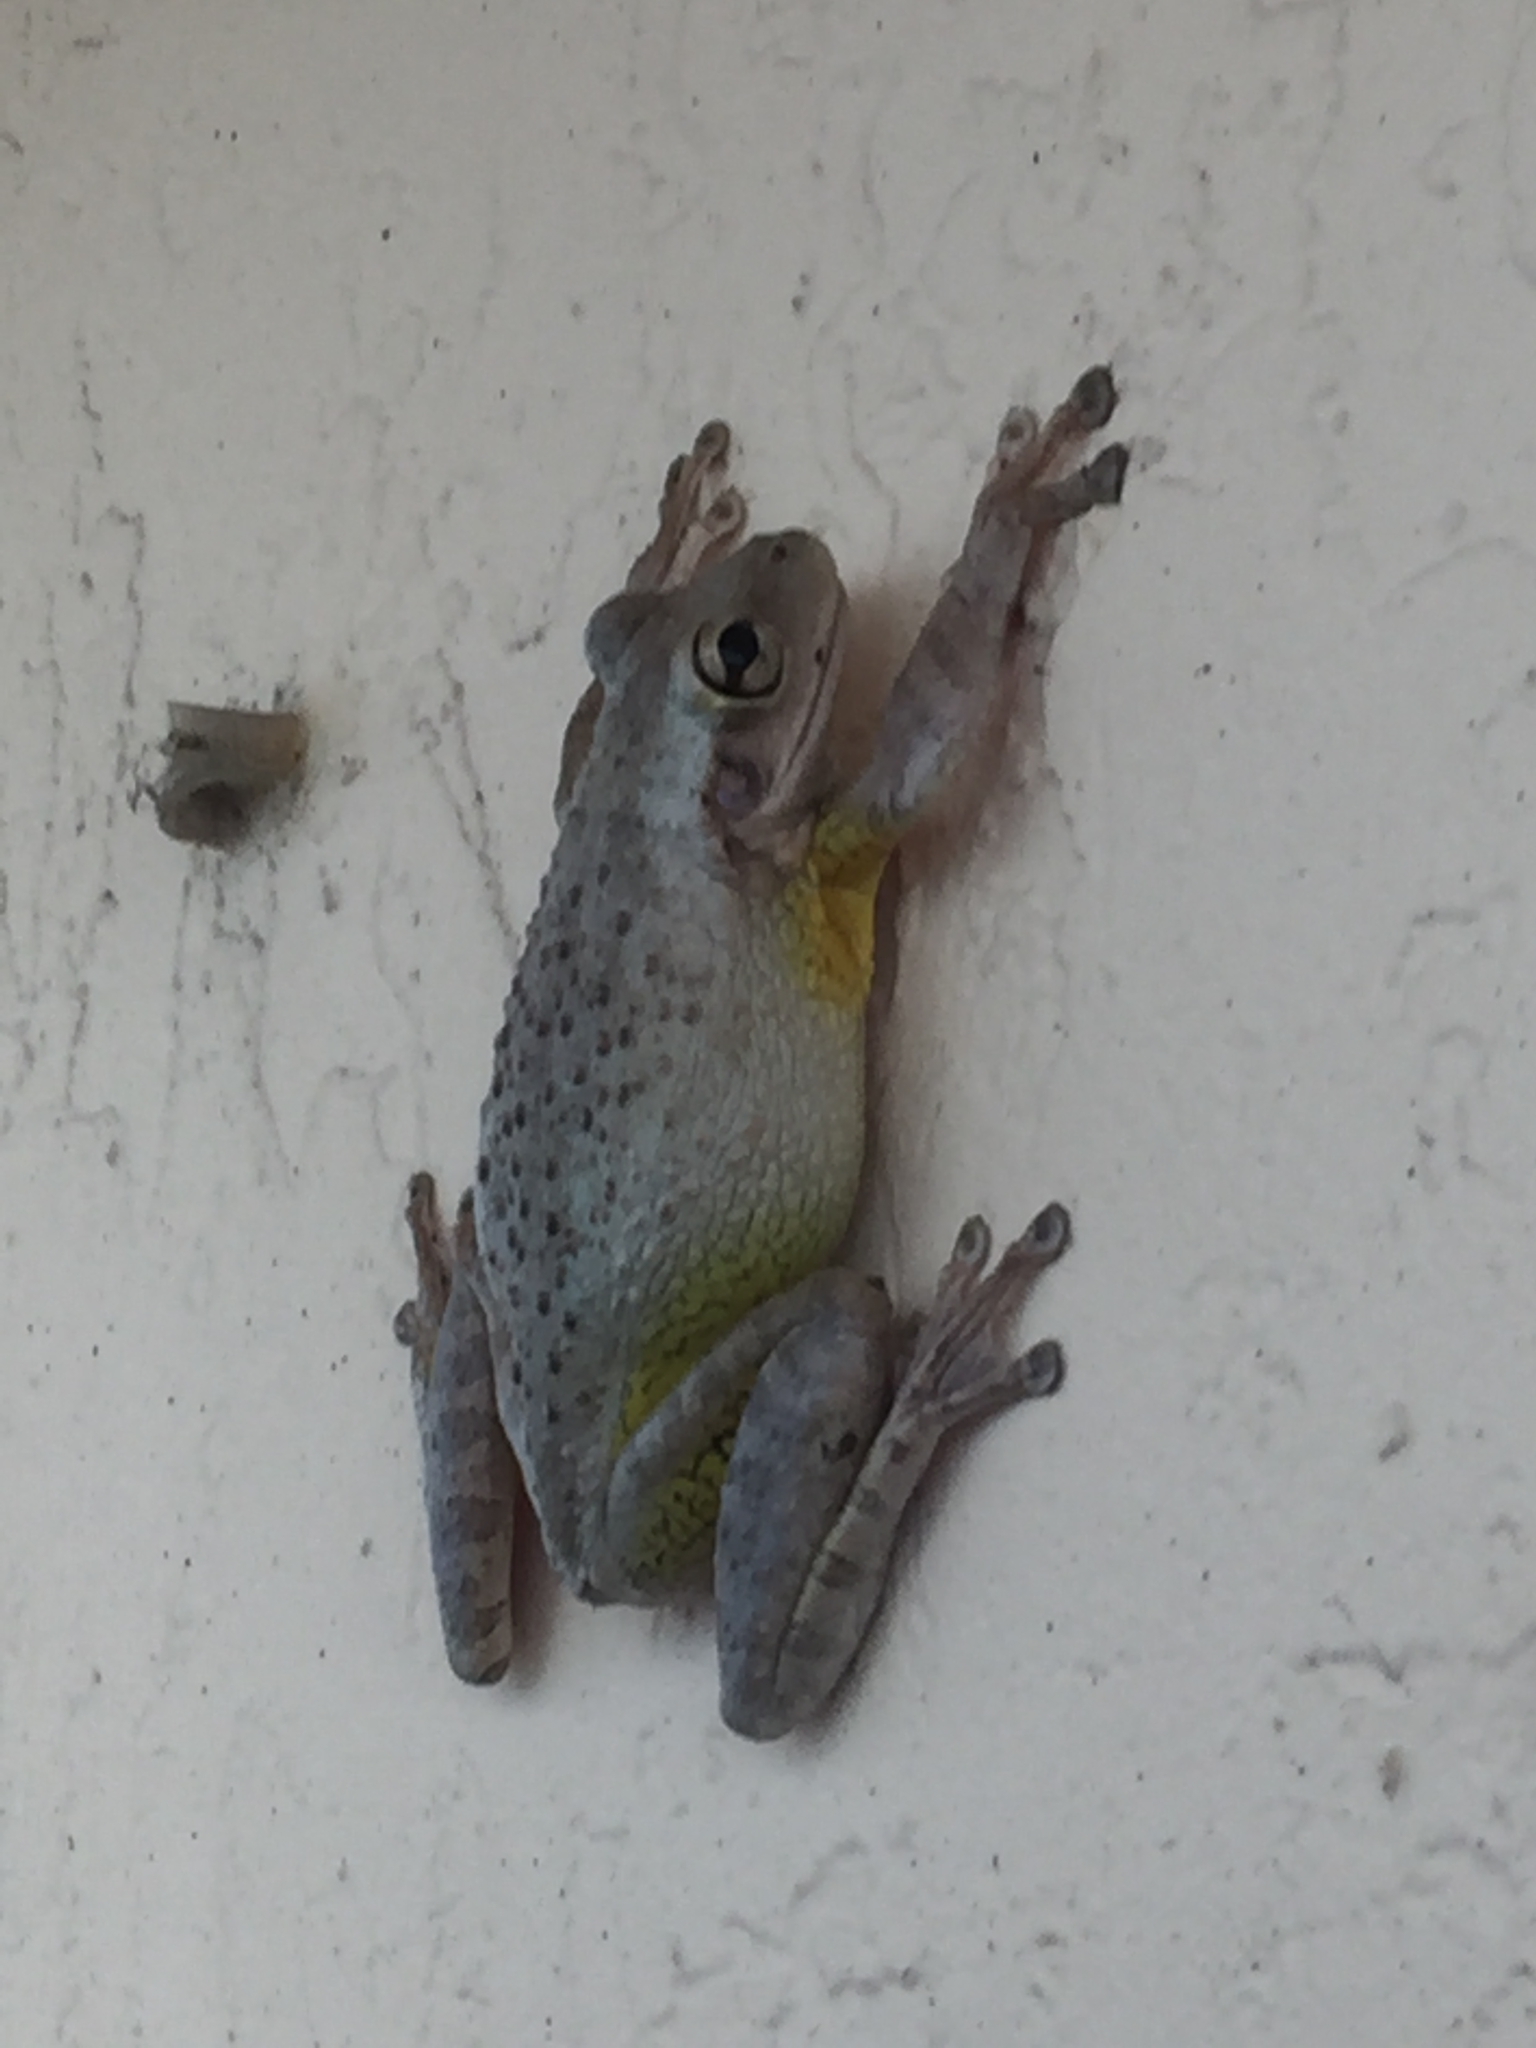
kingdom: Animalia
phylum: Chordata
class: Amphibia
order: Anura
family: Hylidae
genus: Osteopilus
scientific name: Osteopilus septentrionalis
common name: Cuban treefrog
